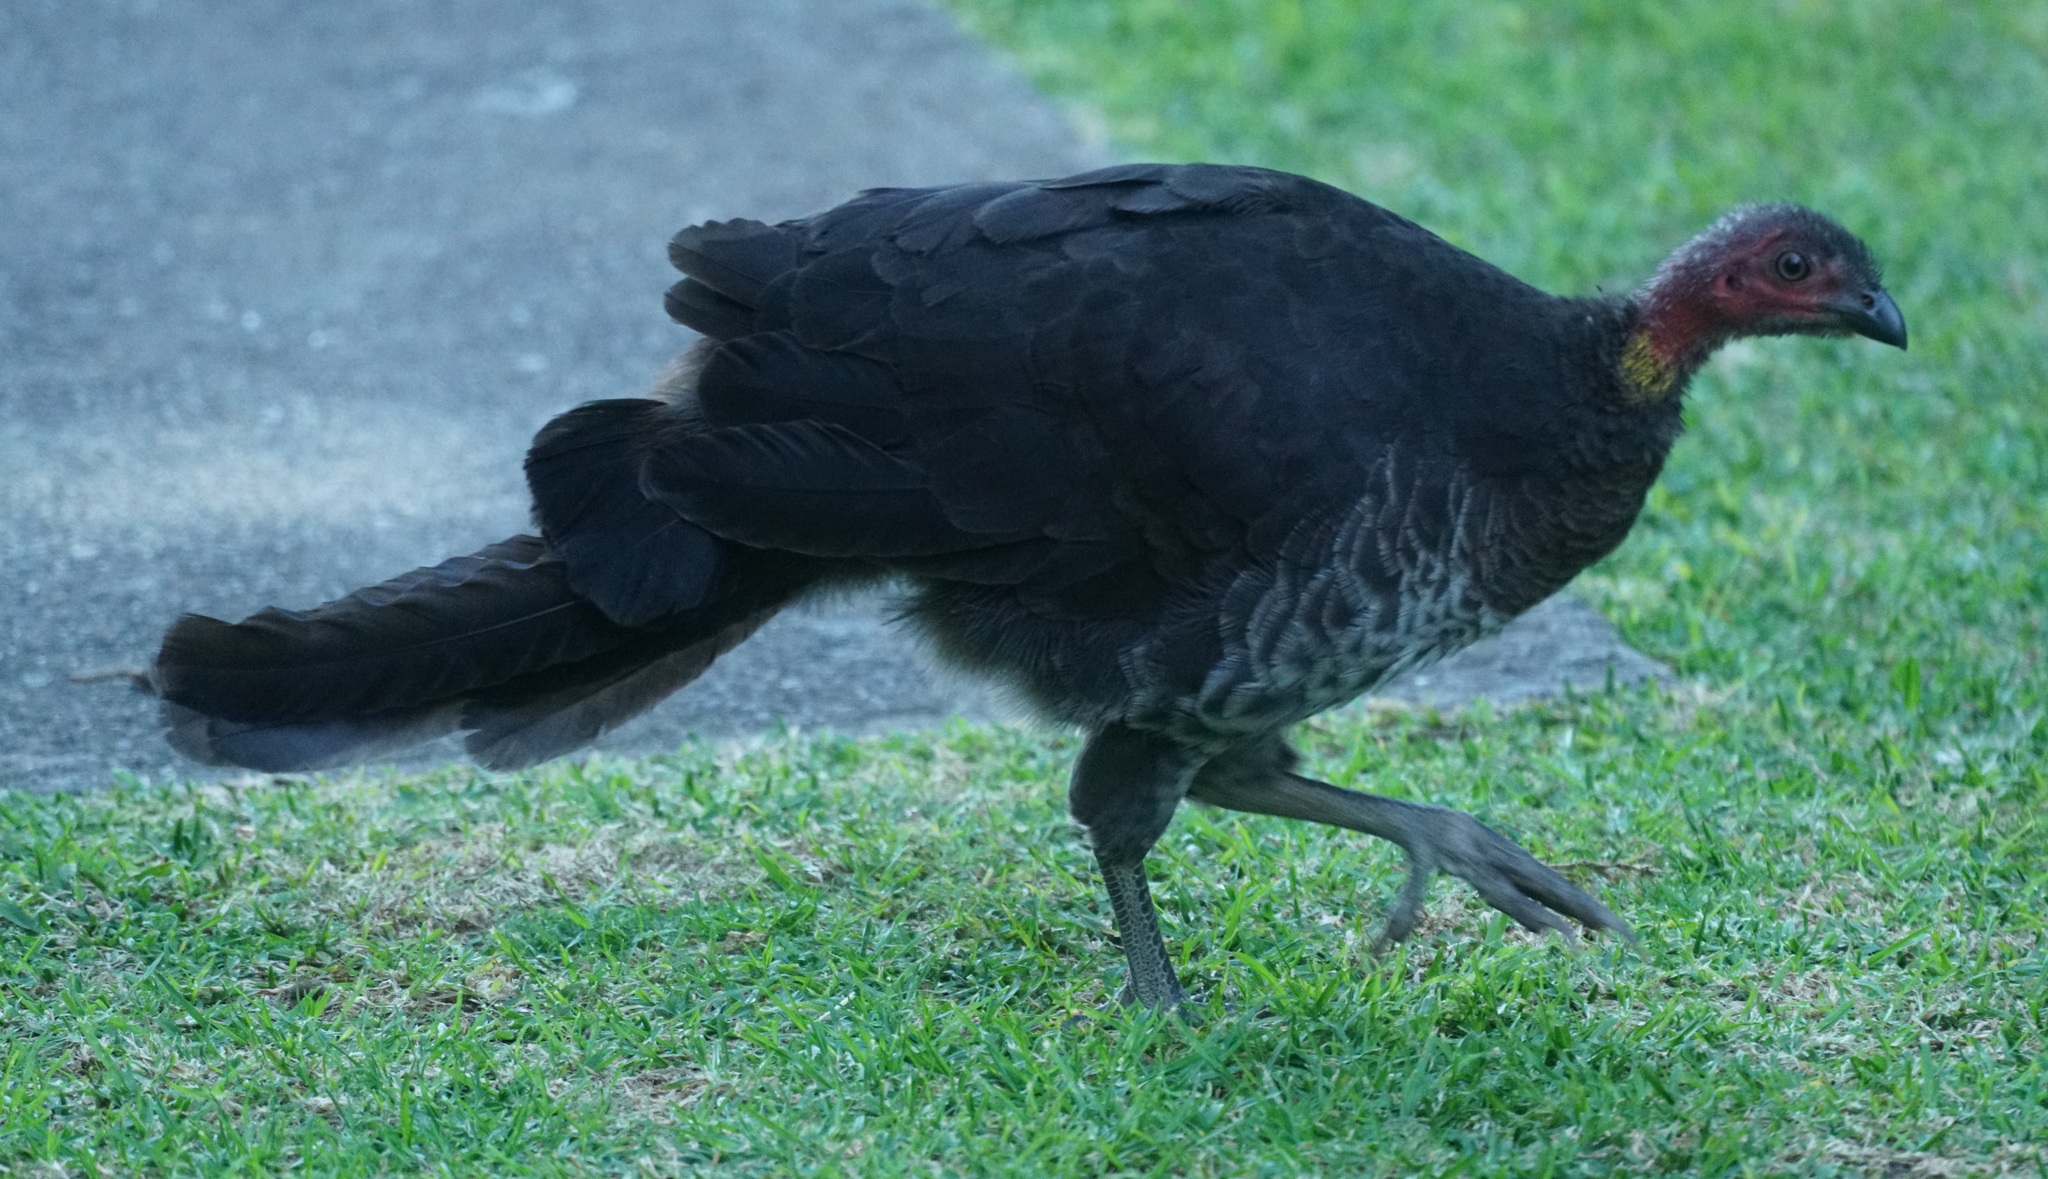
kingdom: Animalia
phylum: Chordata
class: Aves
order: Galliformes
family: Megapodiidae
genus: Alectura
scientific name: Alectura lathami
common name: Australian brushturkey
